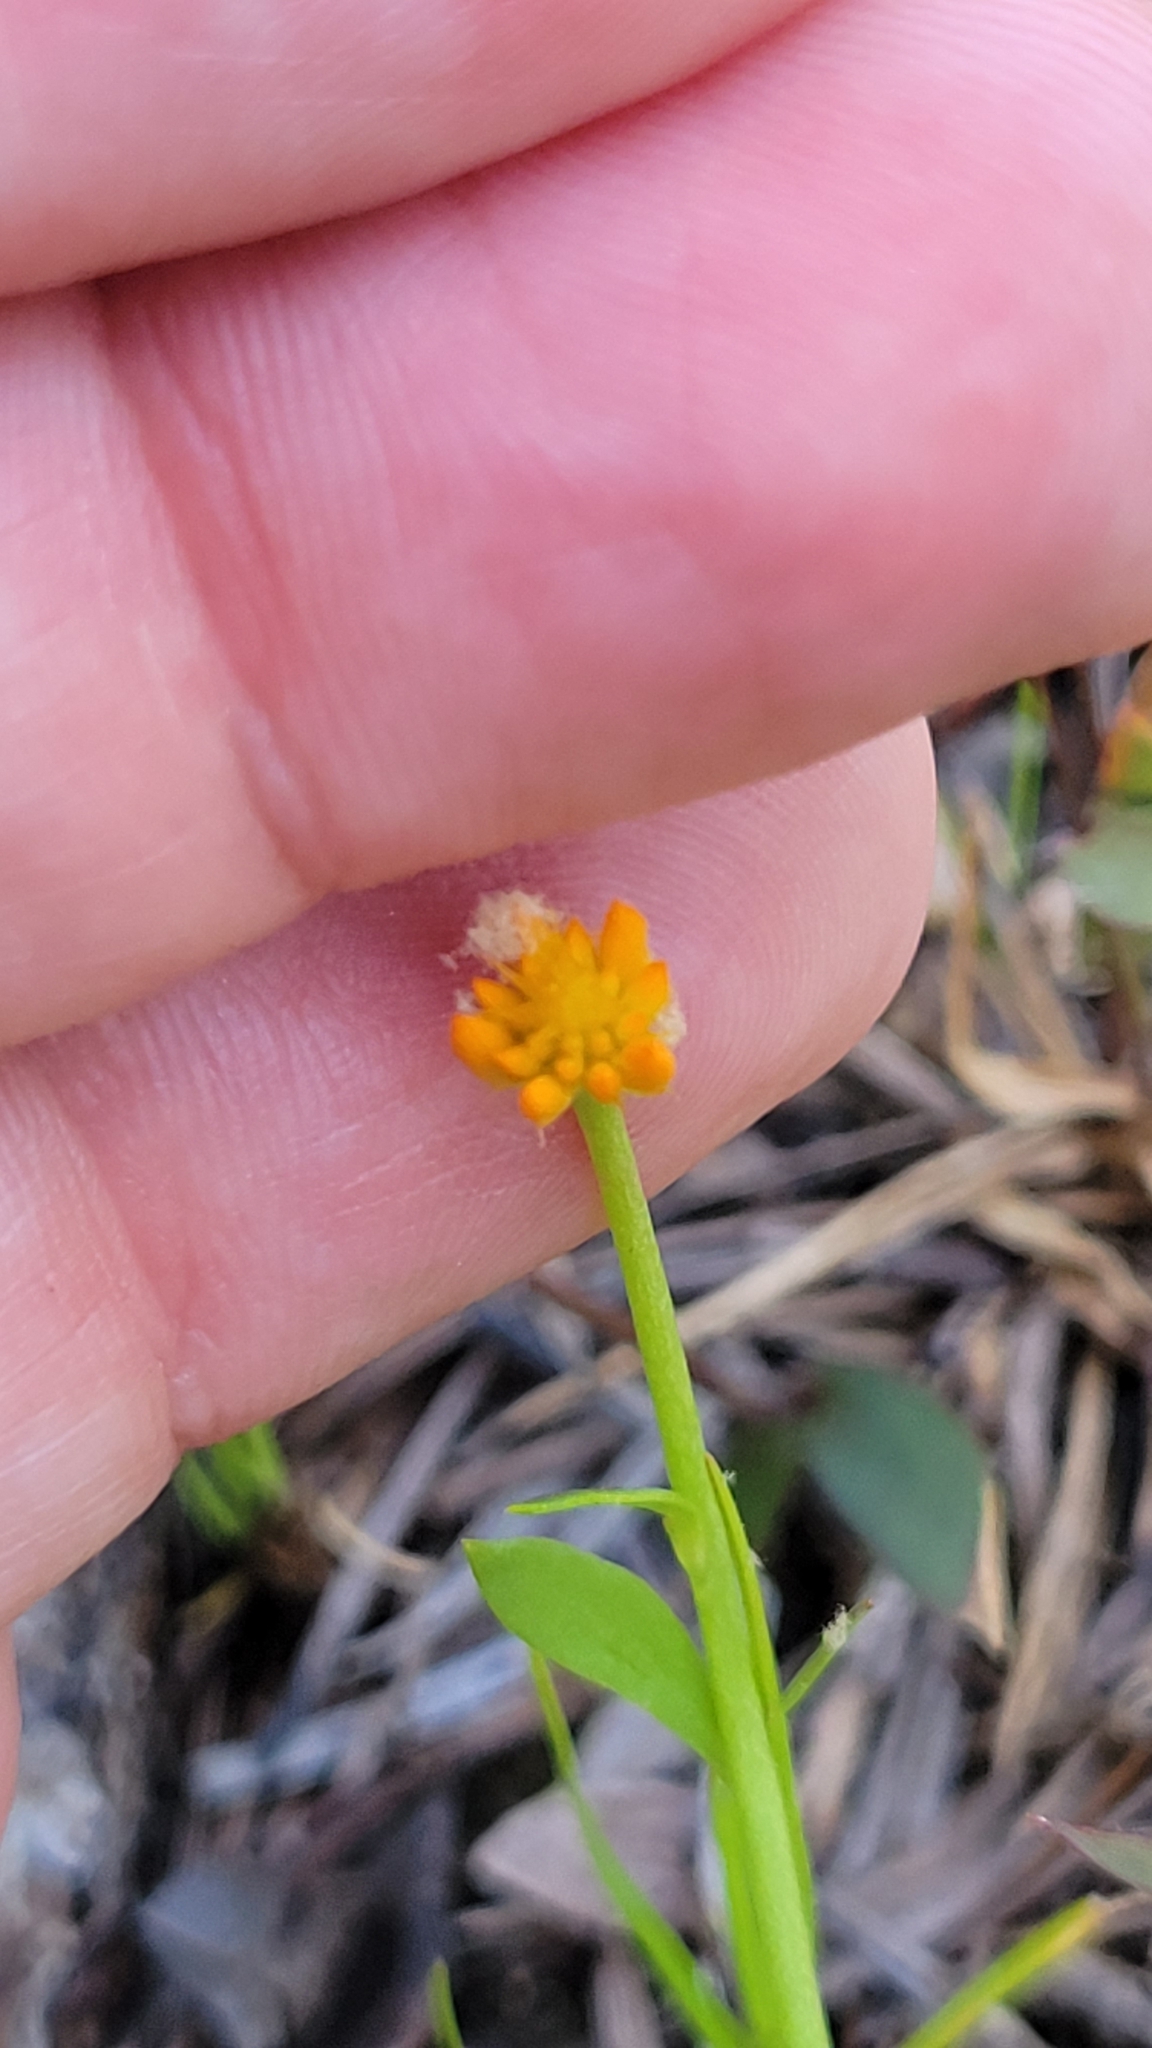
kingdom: Plantae
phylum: Tracheophyta
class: Magnoliopsida
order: Fabales
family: Polygalaceae
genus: Polygala
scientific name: Polygala lutea
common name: Orange milkwort
